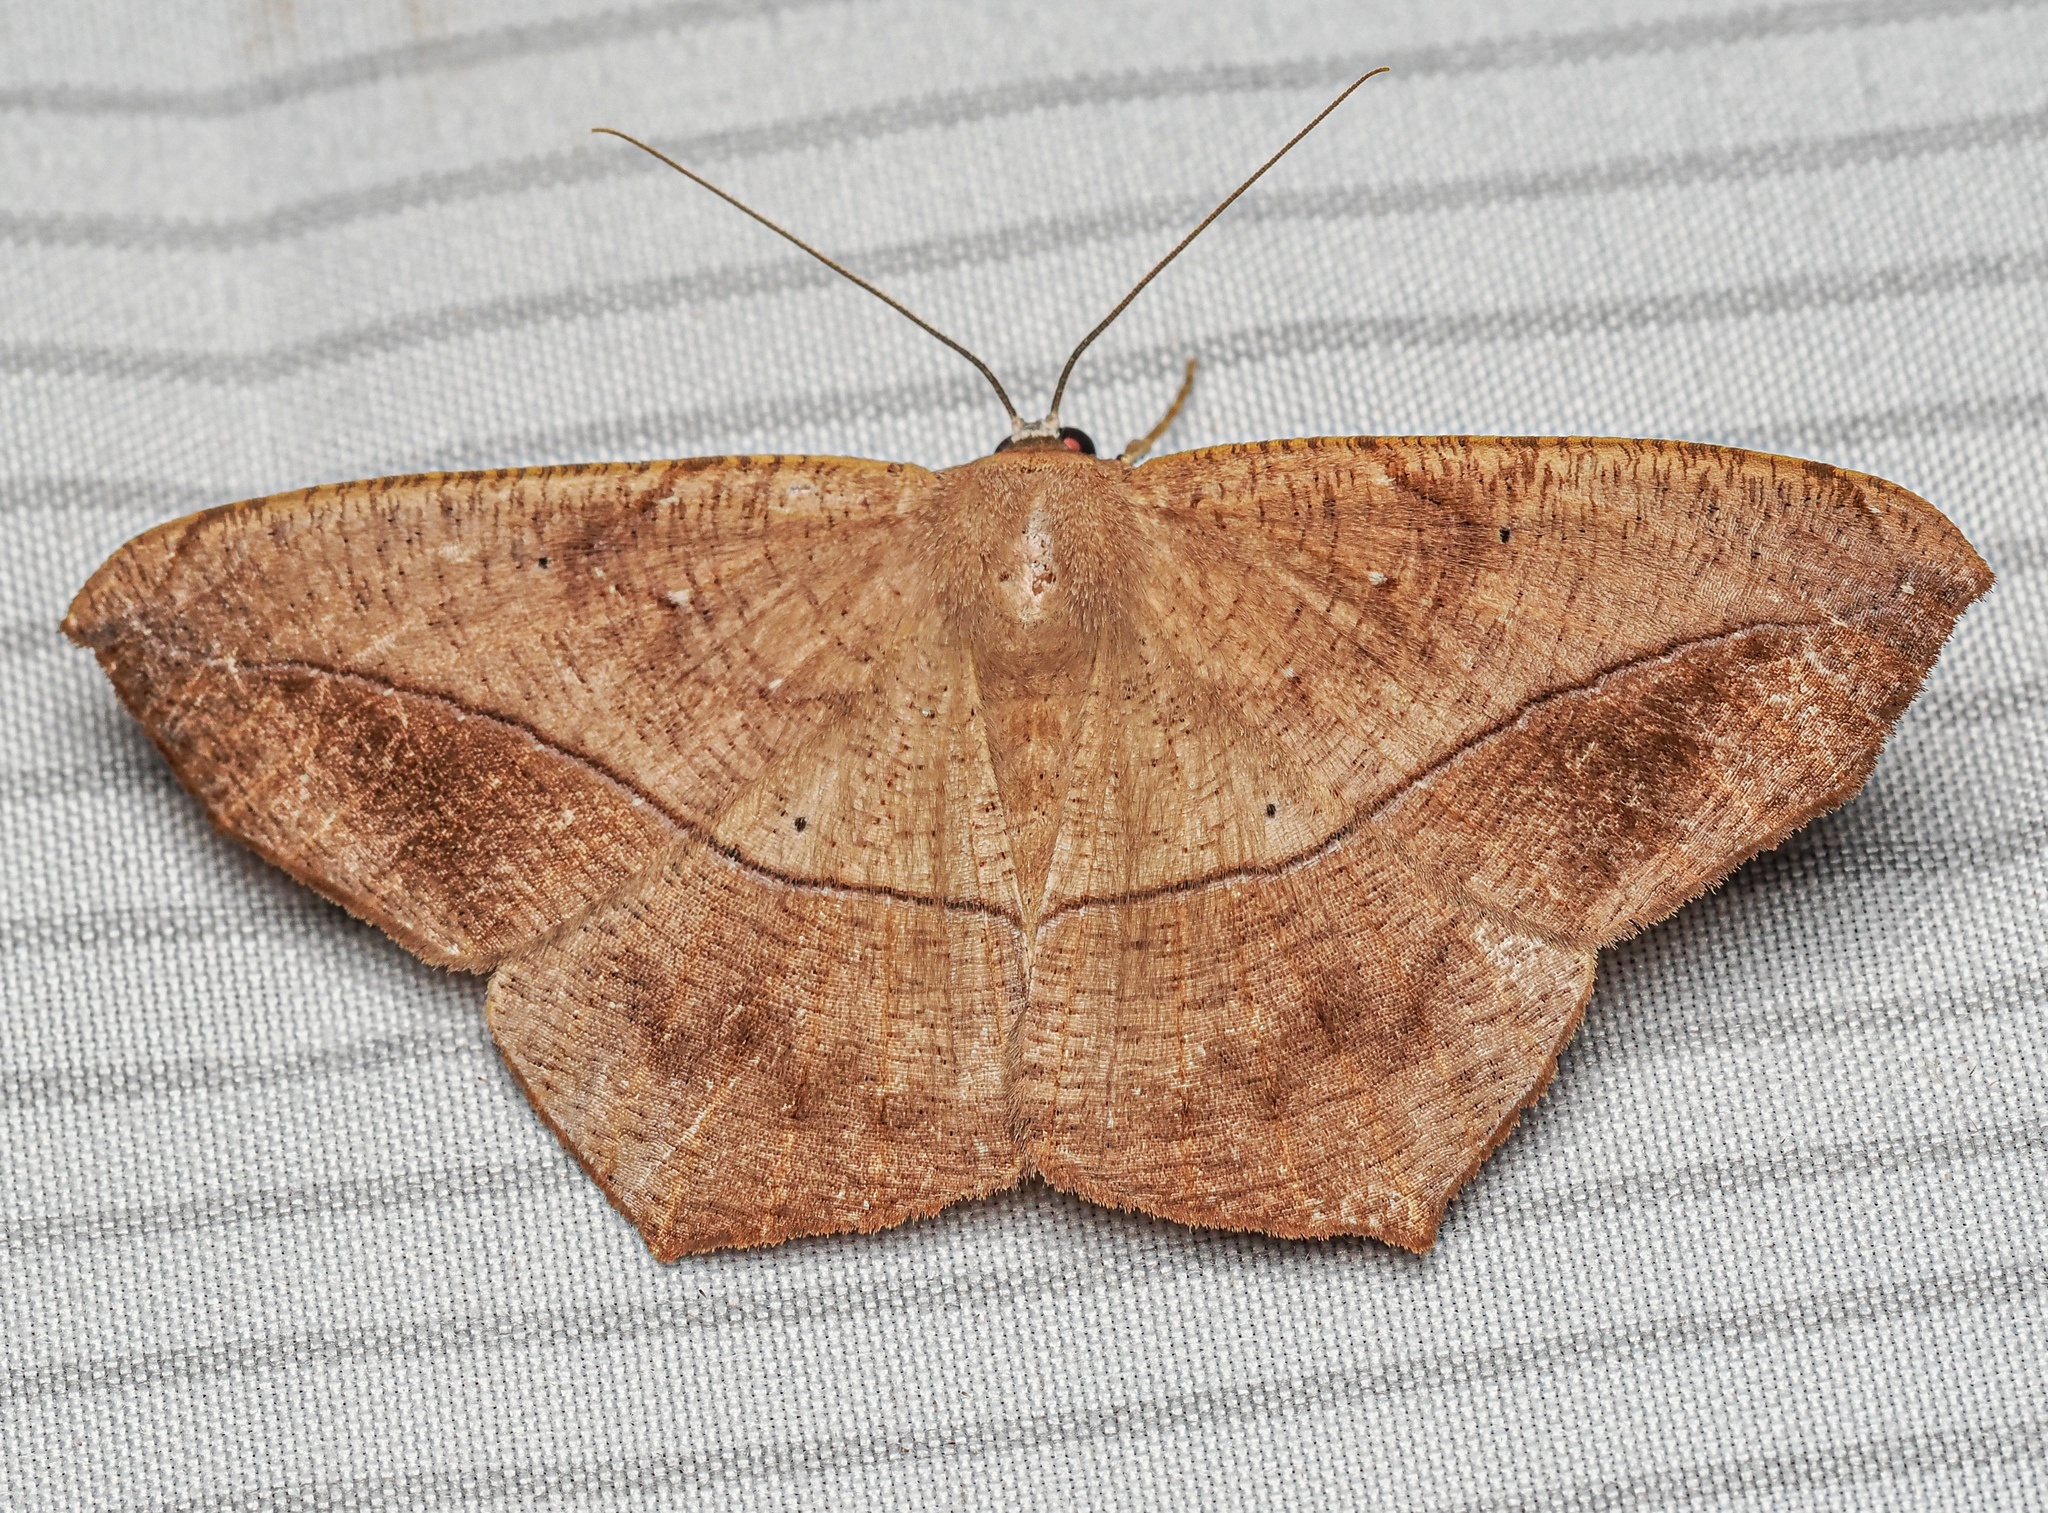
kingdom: Animalia
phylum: Arthropoda
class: Insecta
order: Lepidoptera
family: Geometridae
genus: Patalene
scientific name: Patalene olyzonaria
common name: Juniper geometer moth
